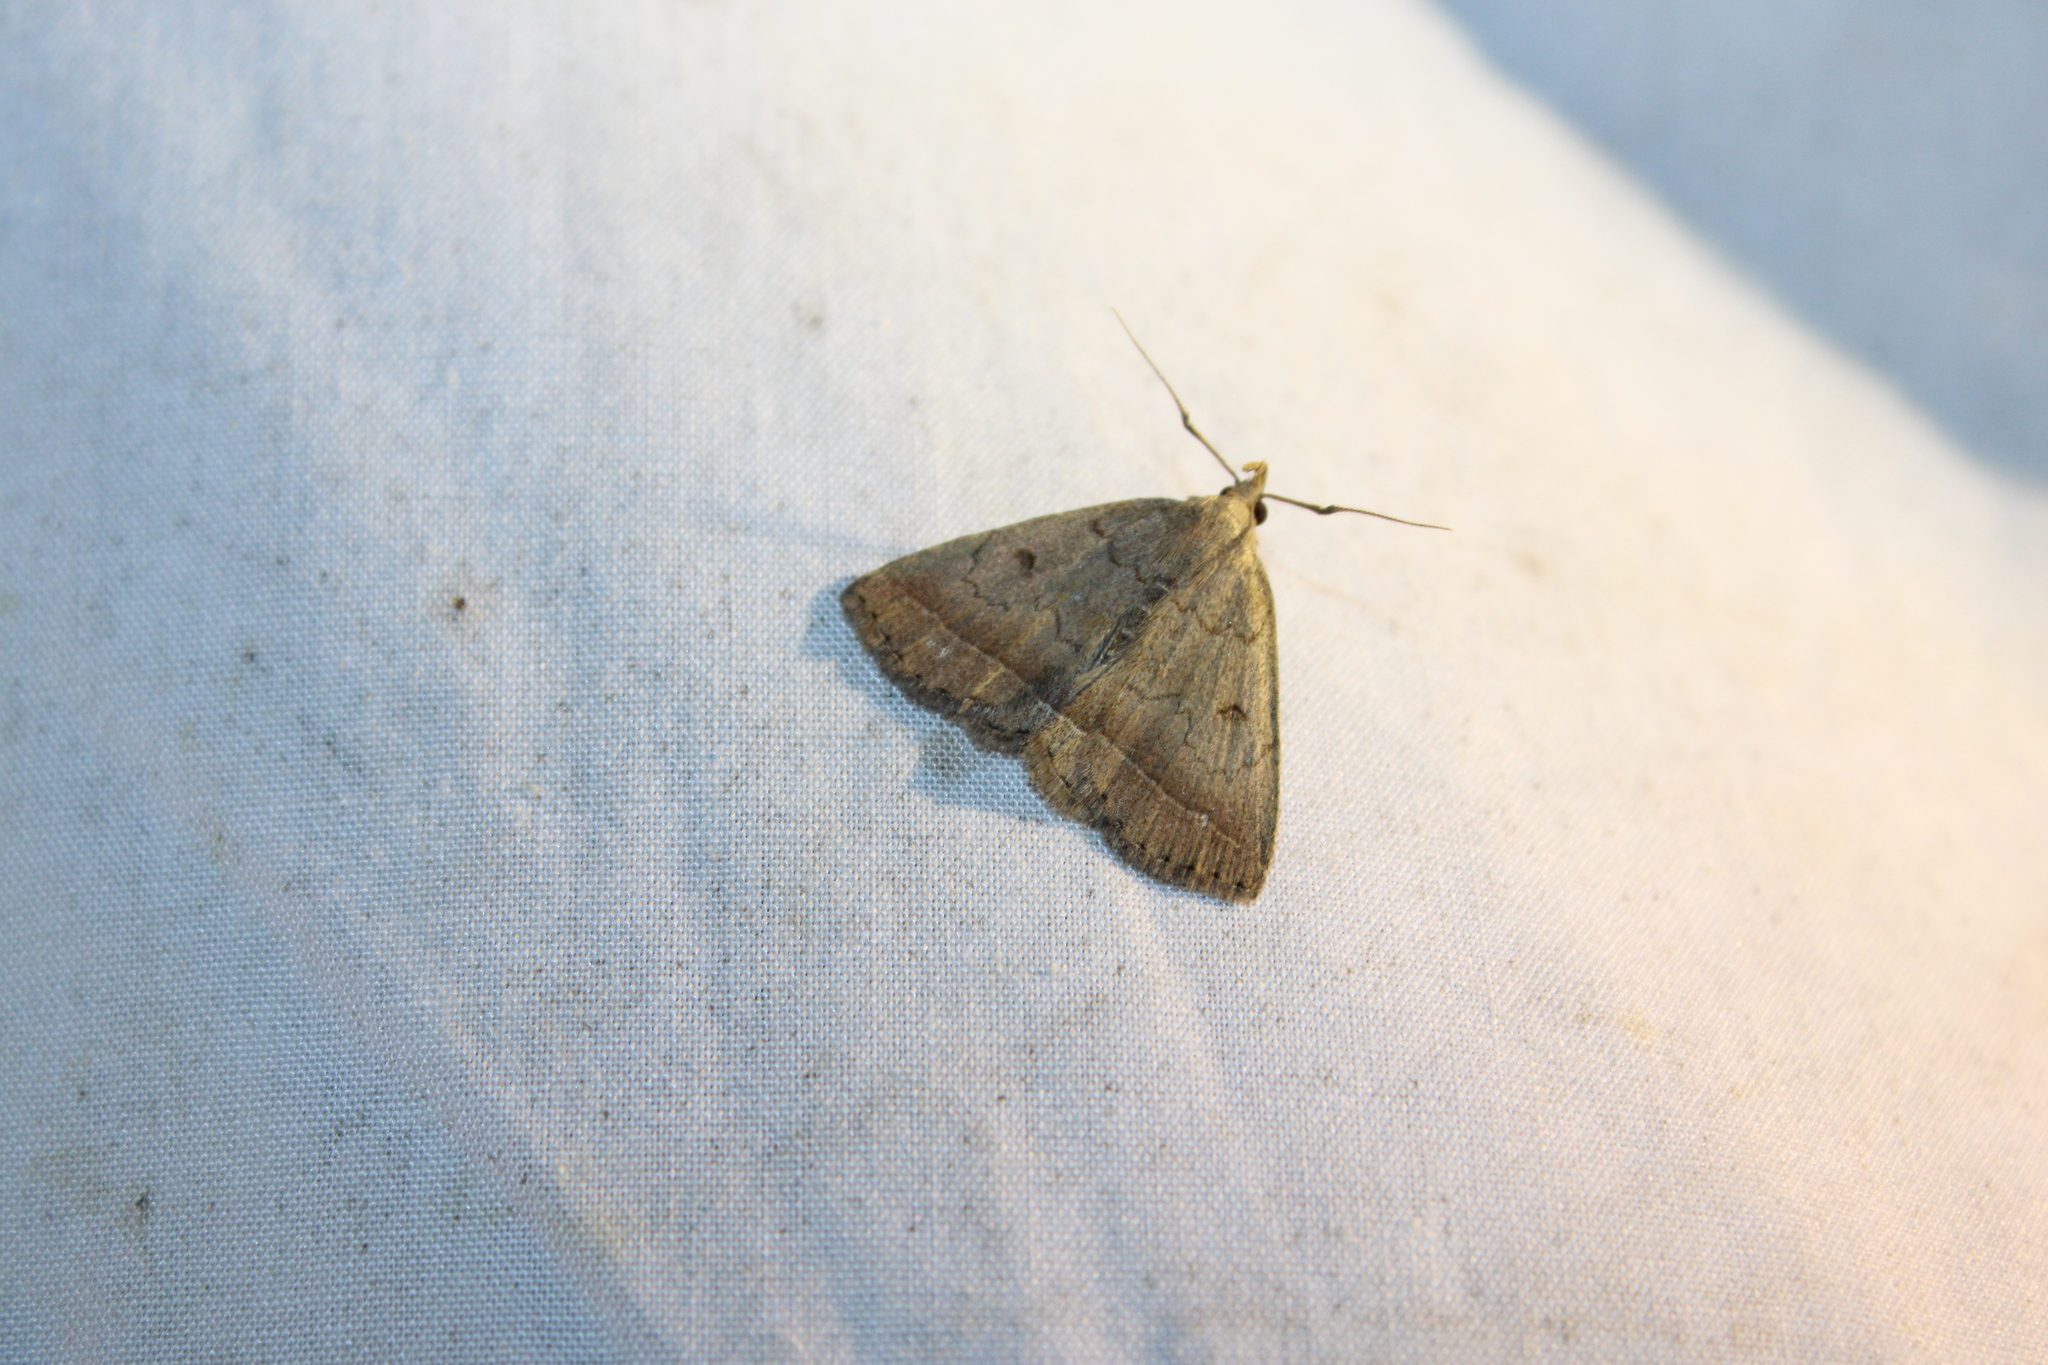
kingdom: Animalia
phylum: Arthropoda
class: Insecta
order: Lepidoptera
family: Erebidae
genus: Zanclognatha
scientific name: Zanclognatha jacchusalis
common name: Yellowish zanclognatha
